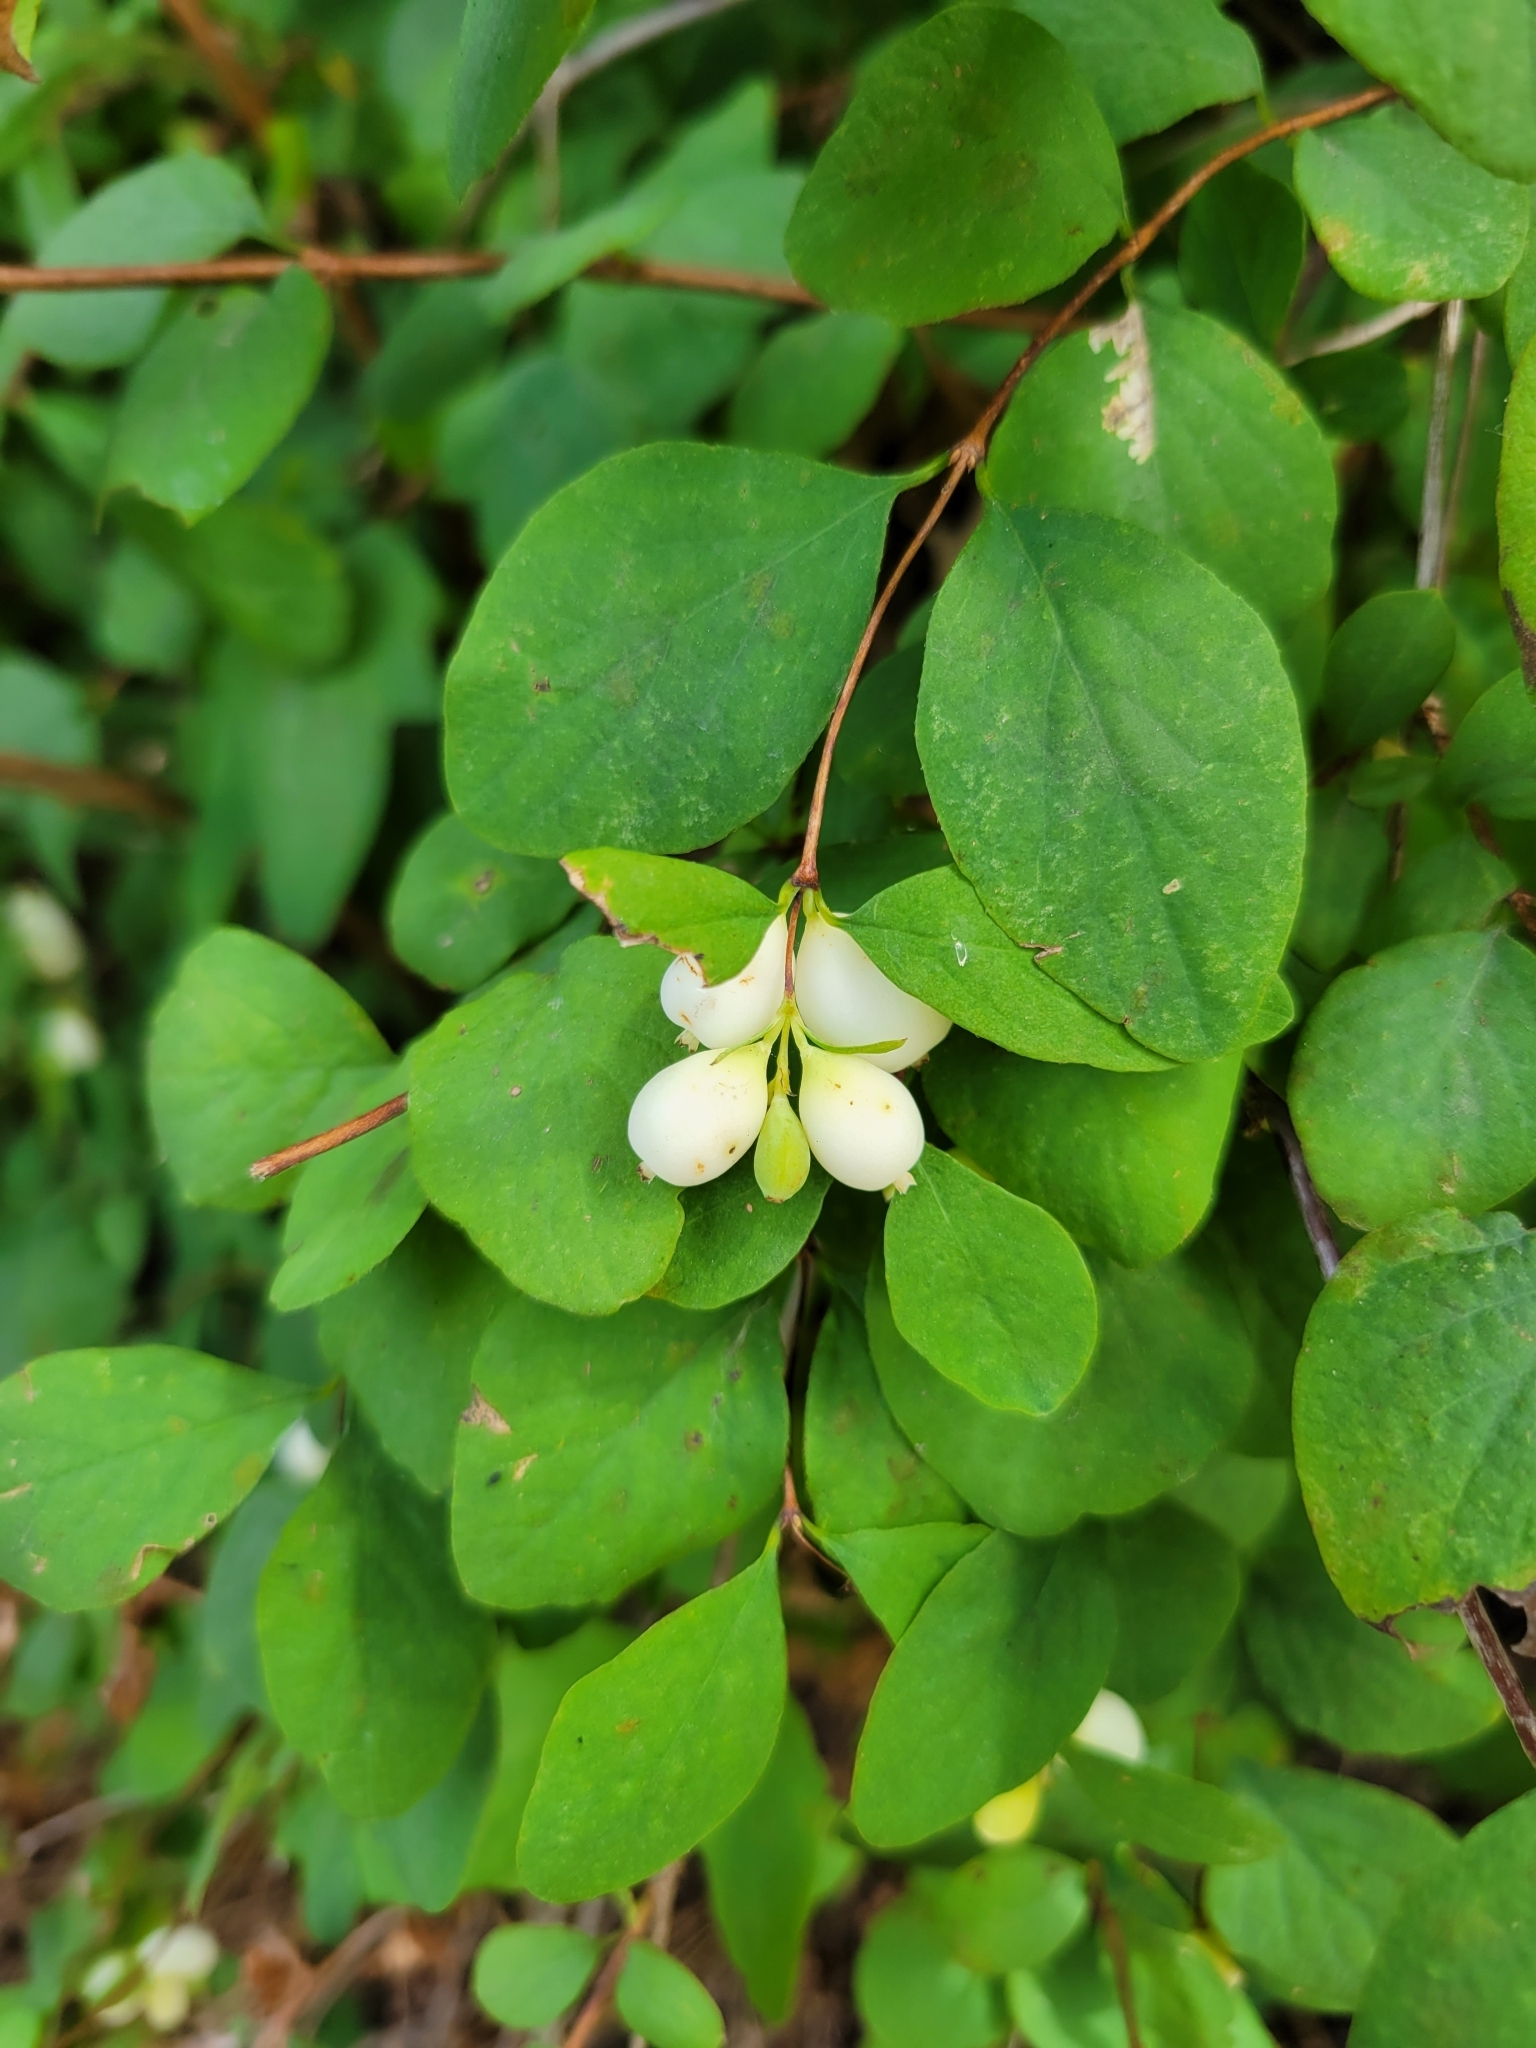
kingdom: Plantae
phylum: Tracheophyta
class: Magnoliopsida
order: Dipsacales
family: Caprifoliaceae
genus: Symphoricarpos
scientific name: Symphoricarpos albus
